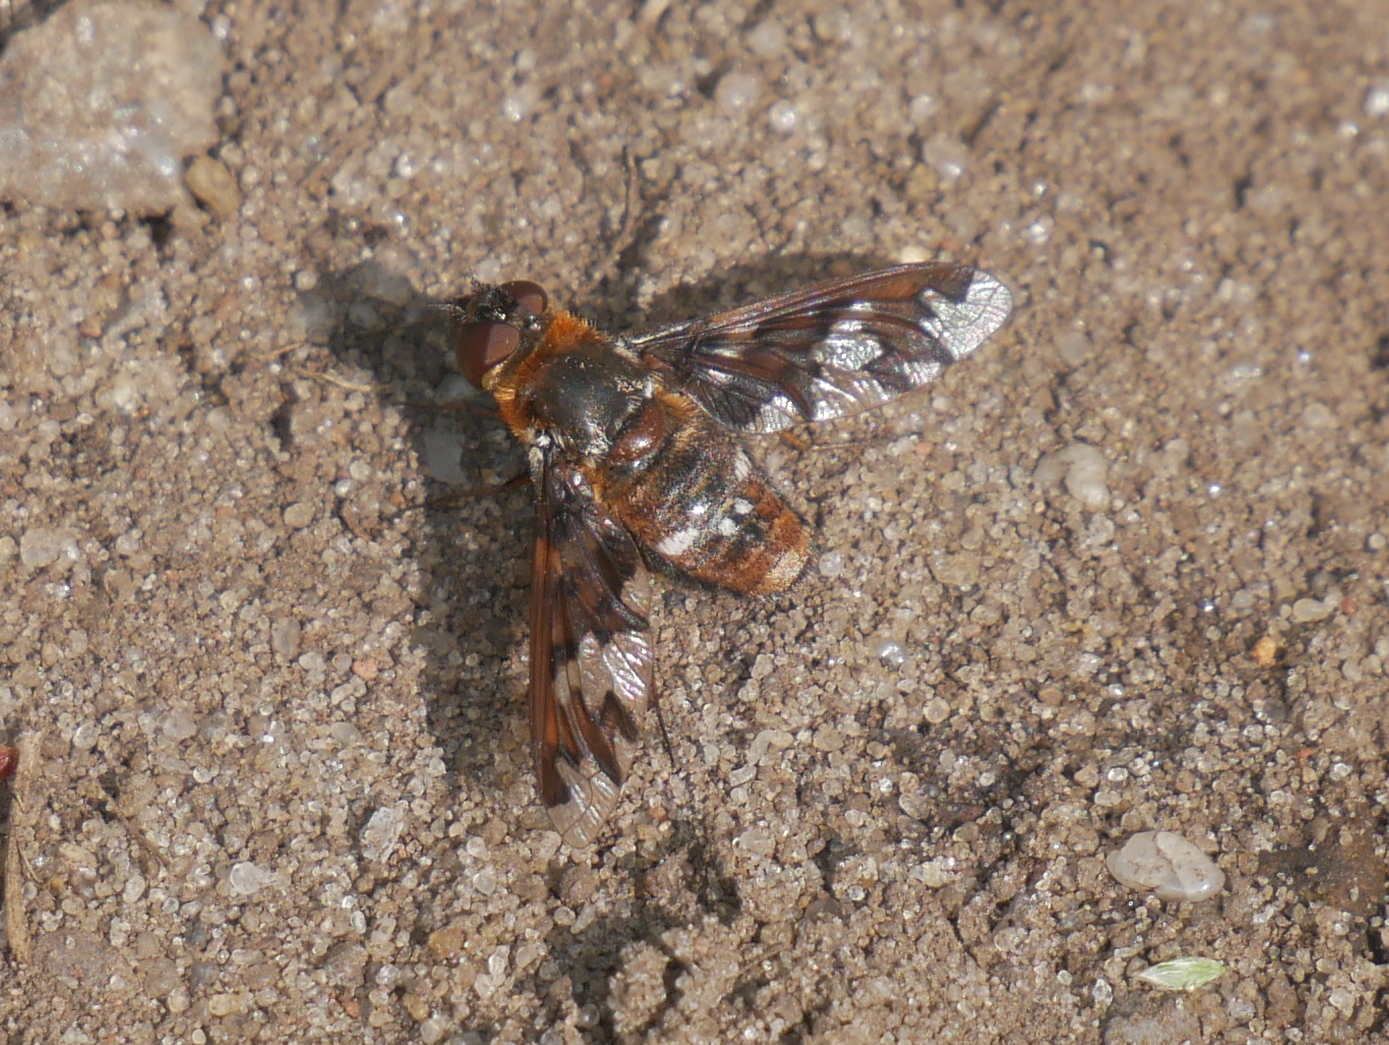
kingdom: Animalia
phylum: Arthropoda
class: Insecta
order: Diptera
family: Bombyliidae
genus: Exoprosopa
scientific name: Exoprosopa capucina
